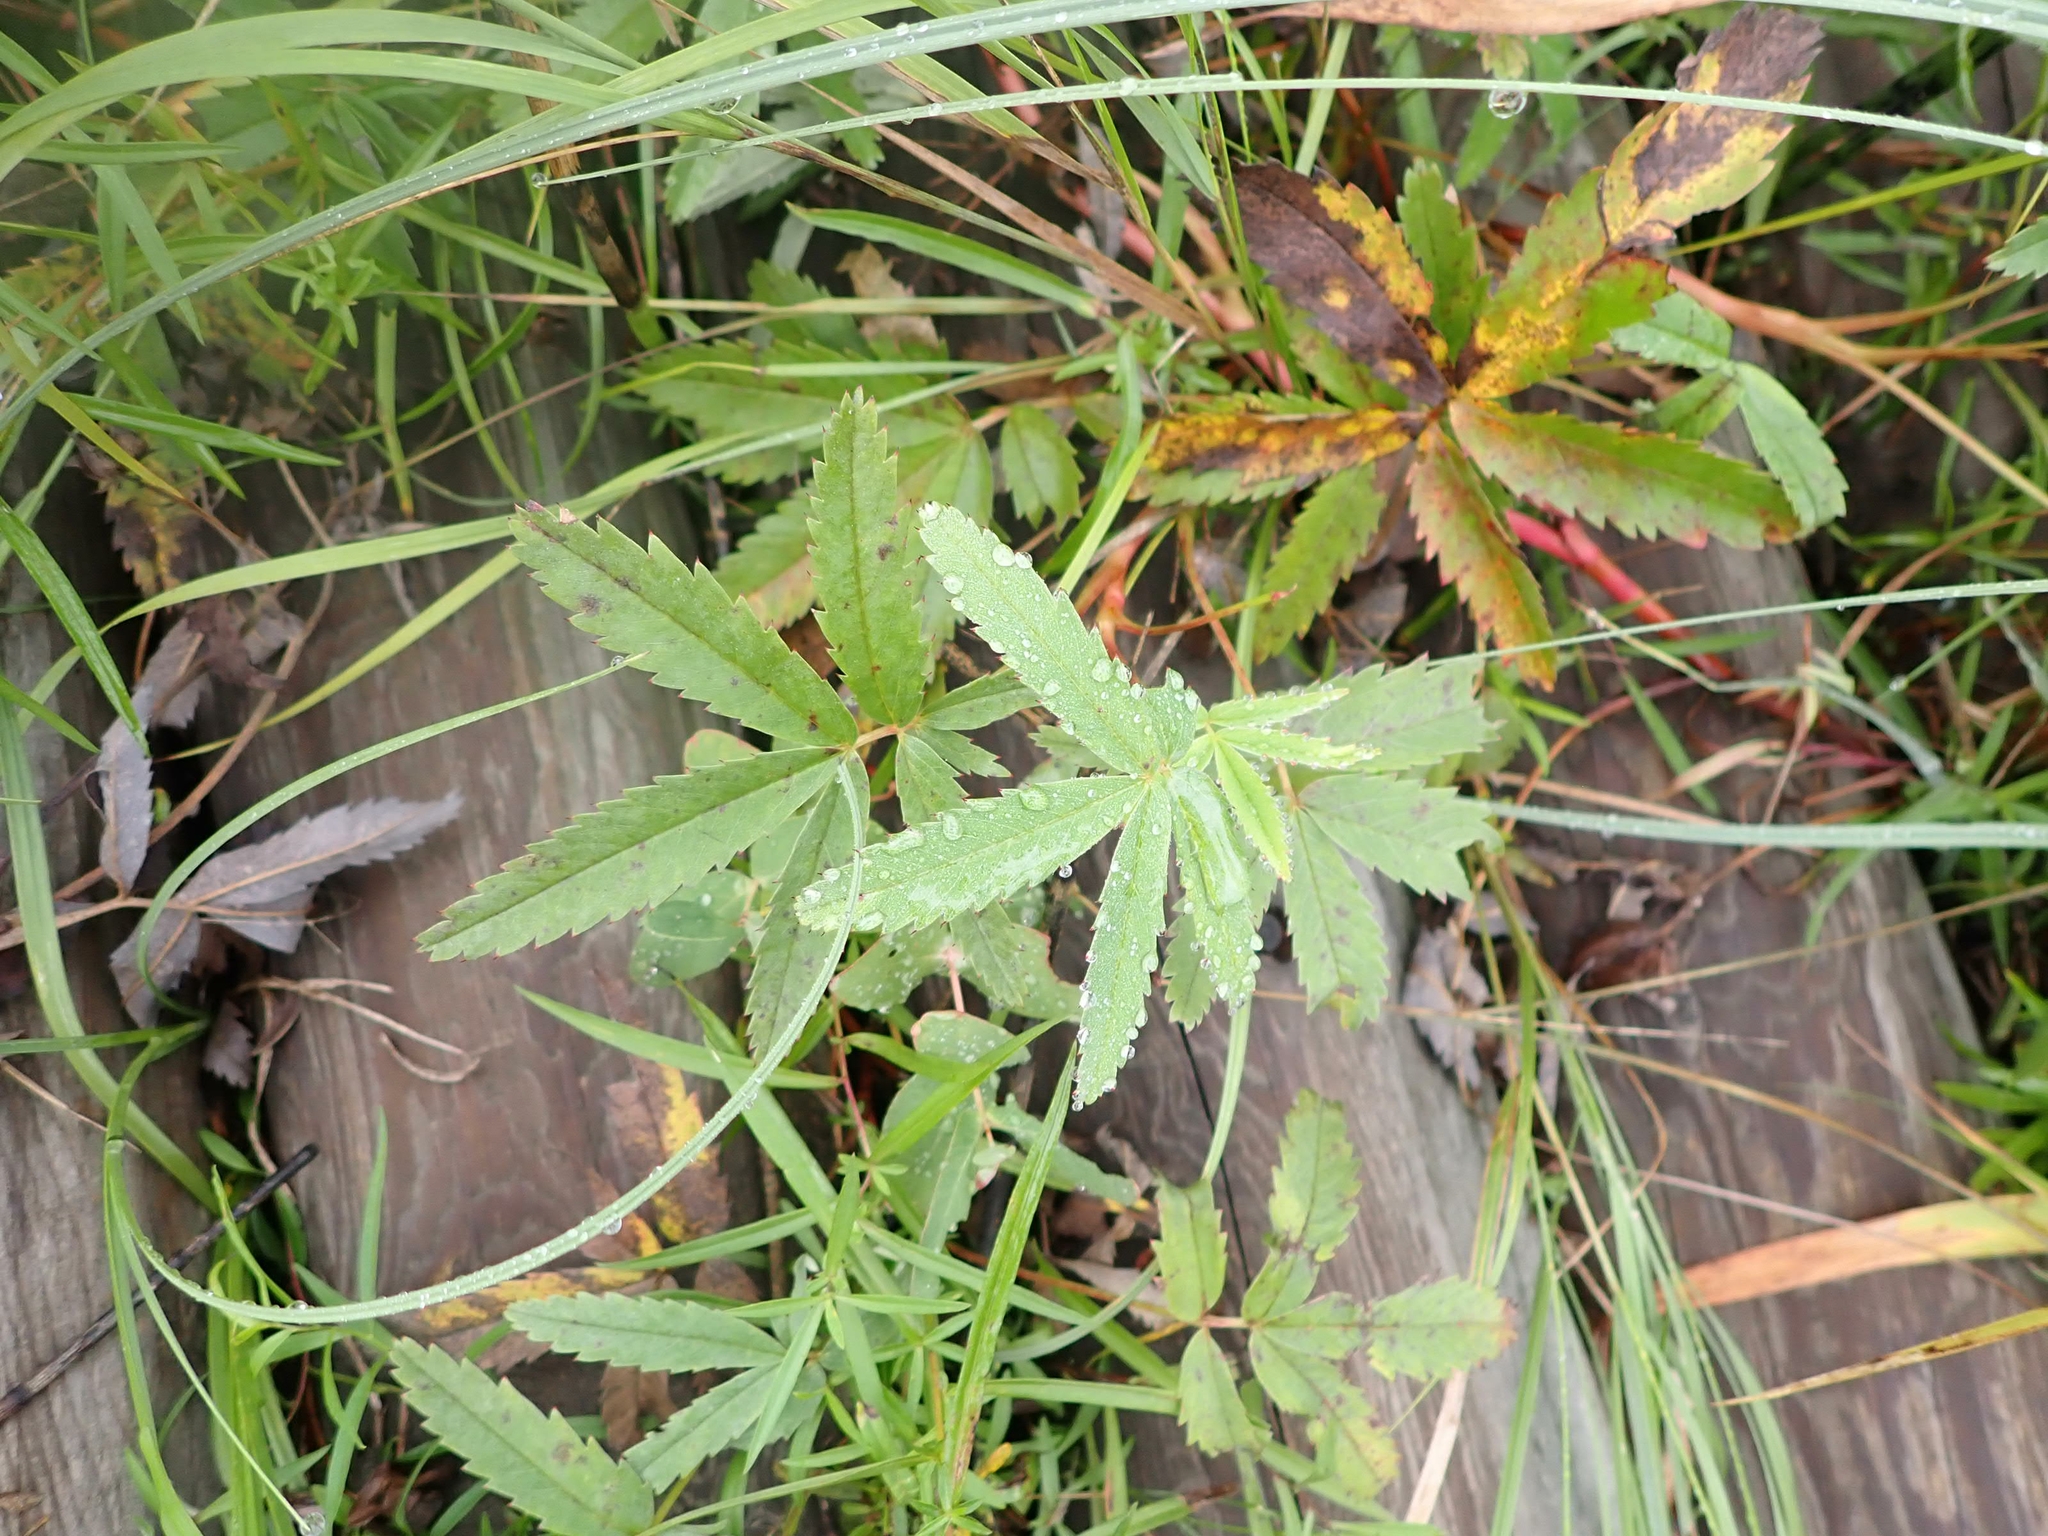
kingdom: Plantae
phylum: Tracheophyta
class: Magnoliopsida
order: Rosales
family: Rosaceae
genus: Comarum
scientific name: Comarum palustre
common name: Marsh cinquefoil
